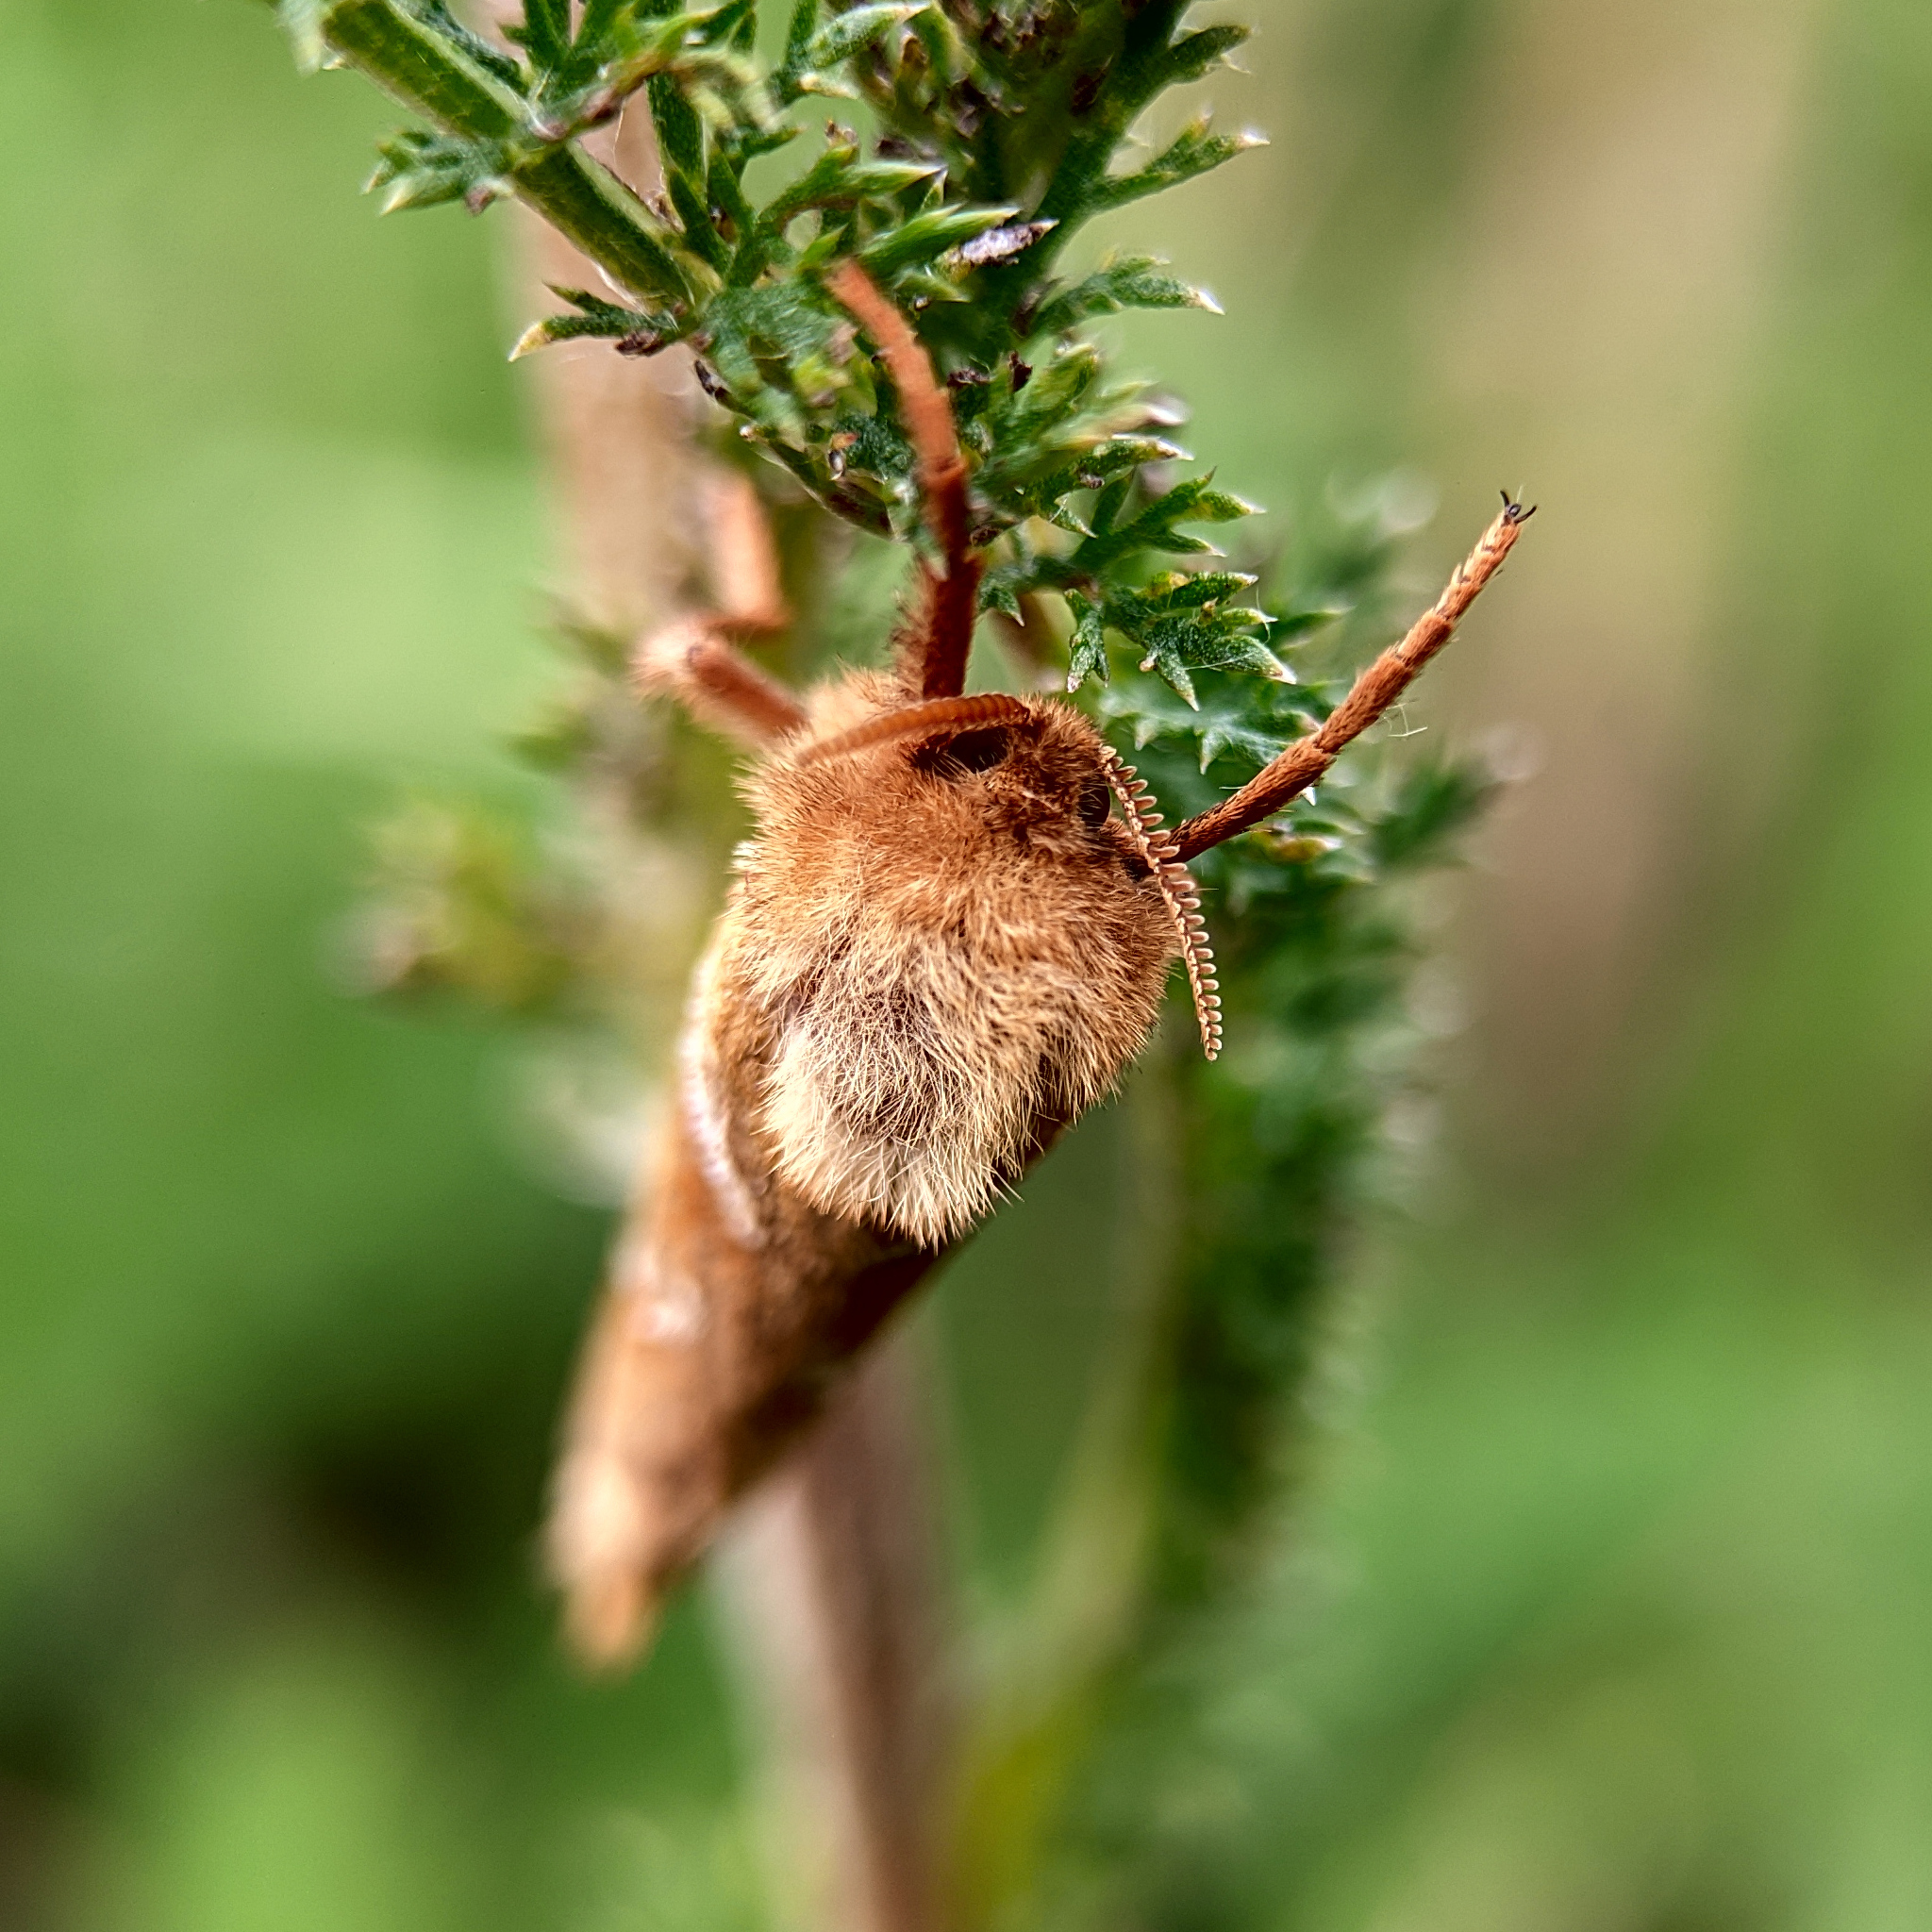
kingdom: Animalia
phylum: Arthropoda
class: Insecta
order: Lepidoptera
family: Hepialidae
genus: Triodia
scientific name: Triodia sylvina
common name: Orange swift
